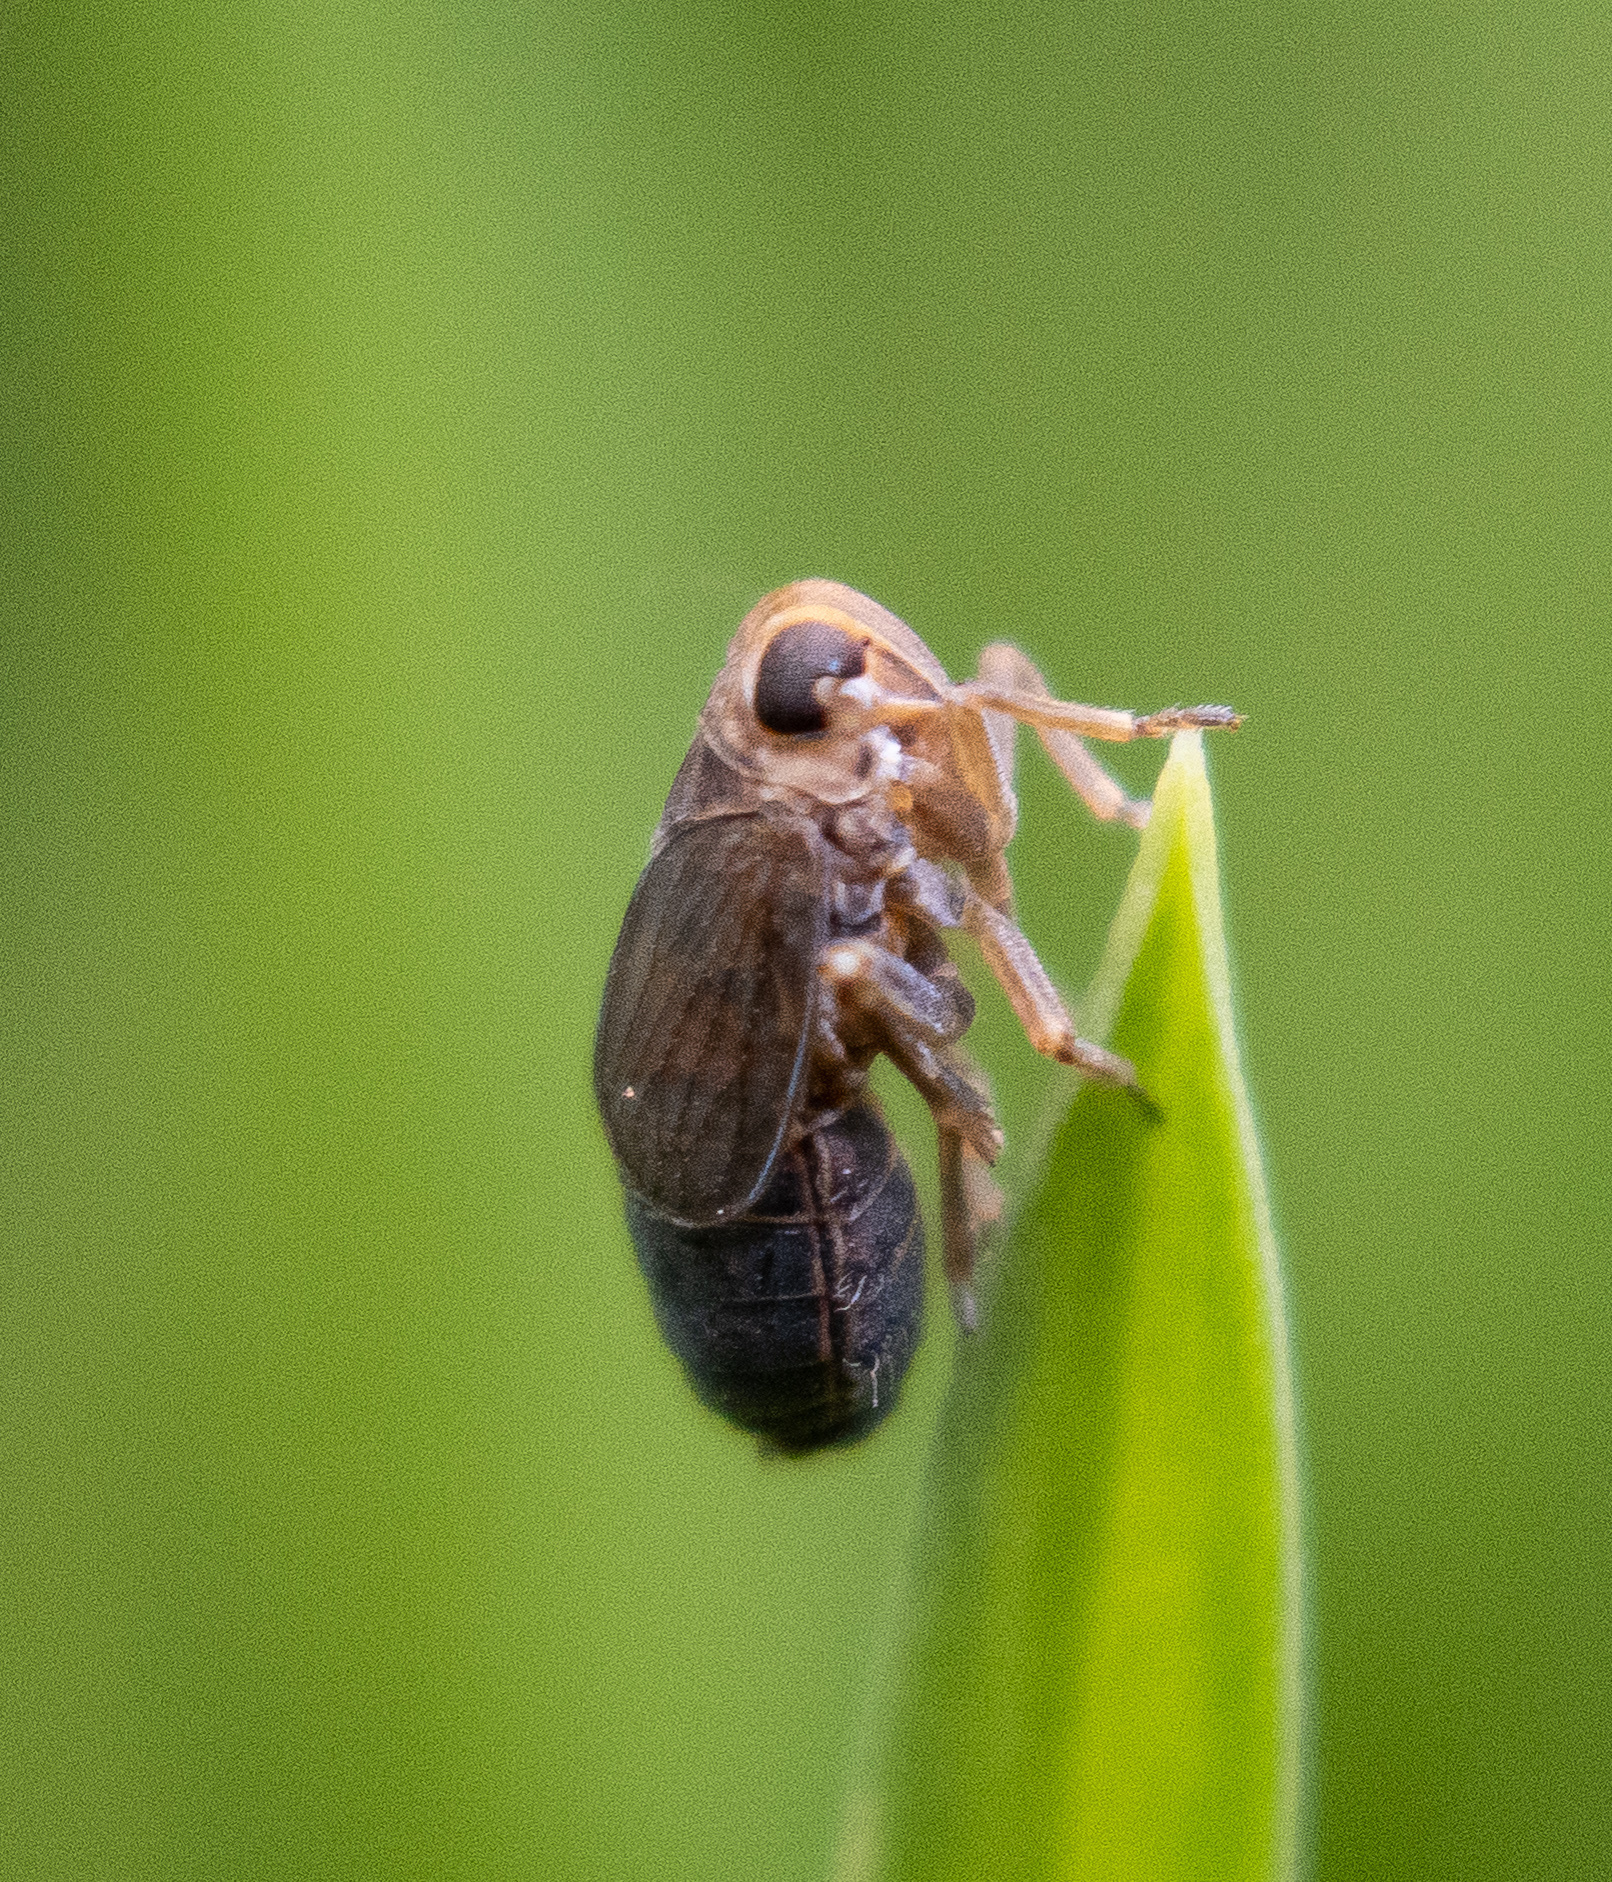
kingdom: Animalia
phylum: Arthropoda
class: Insecta
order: Hemiptera
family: Delphacidae
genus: Kosswigianella
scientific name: Kosswigianella perusta
